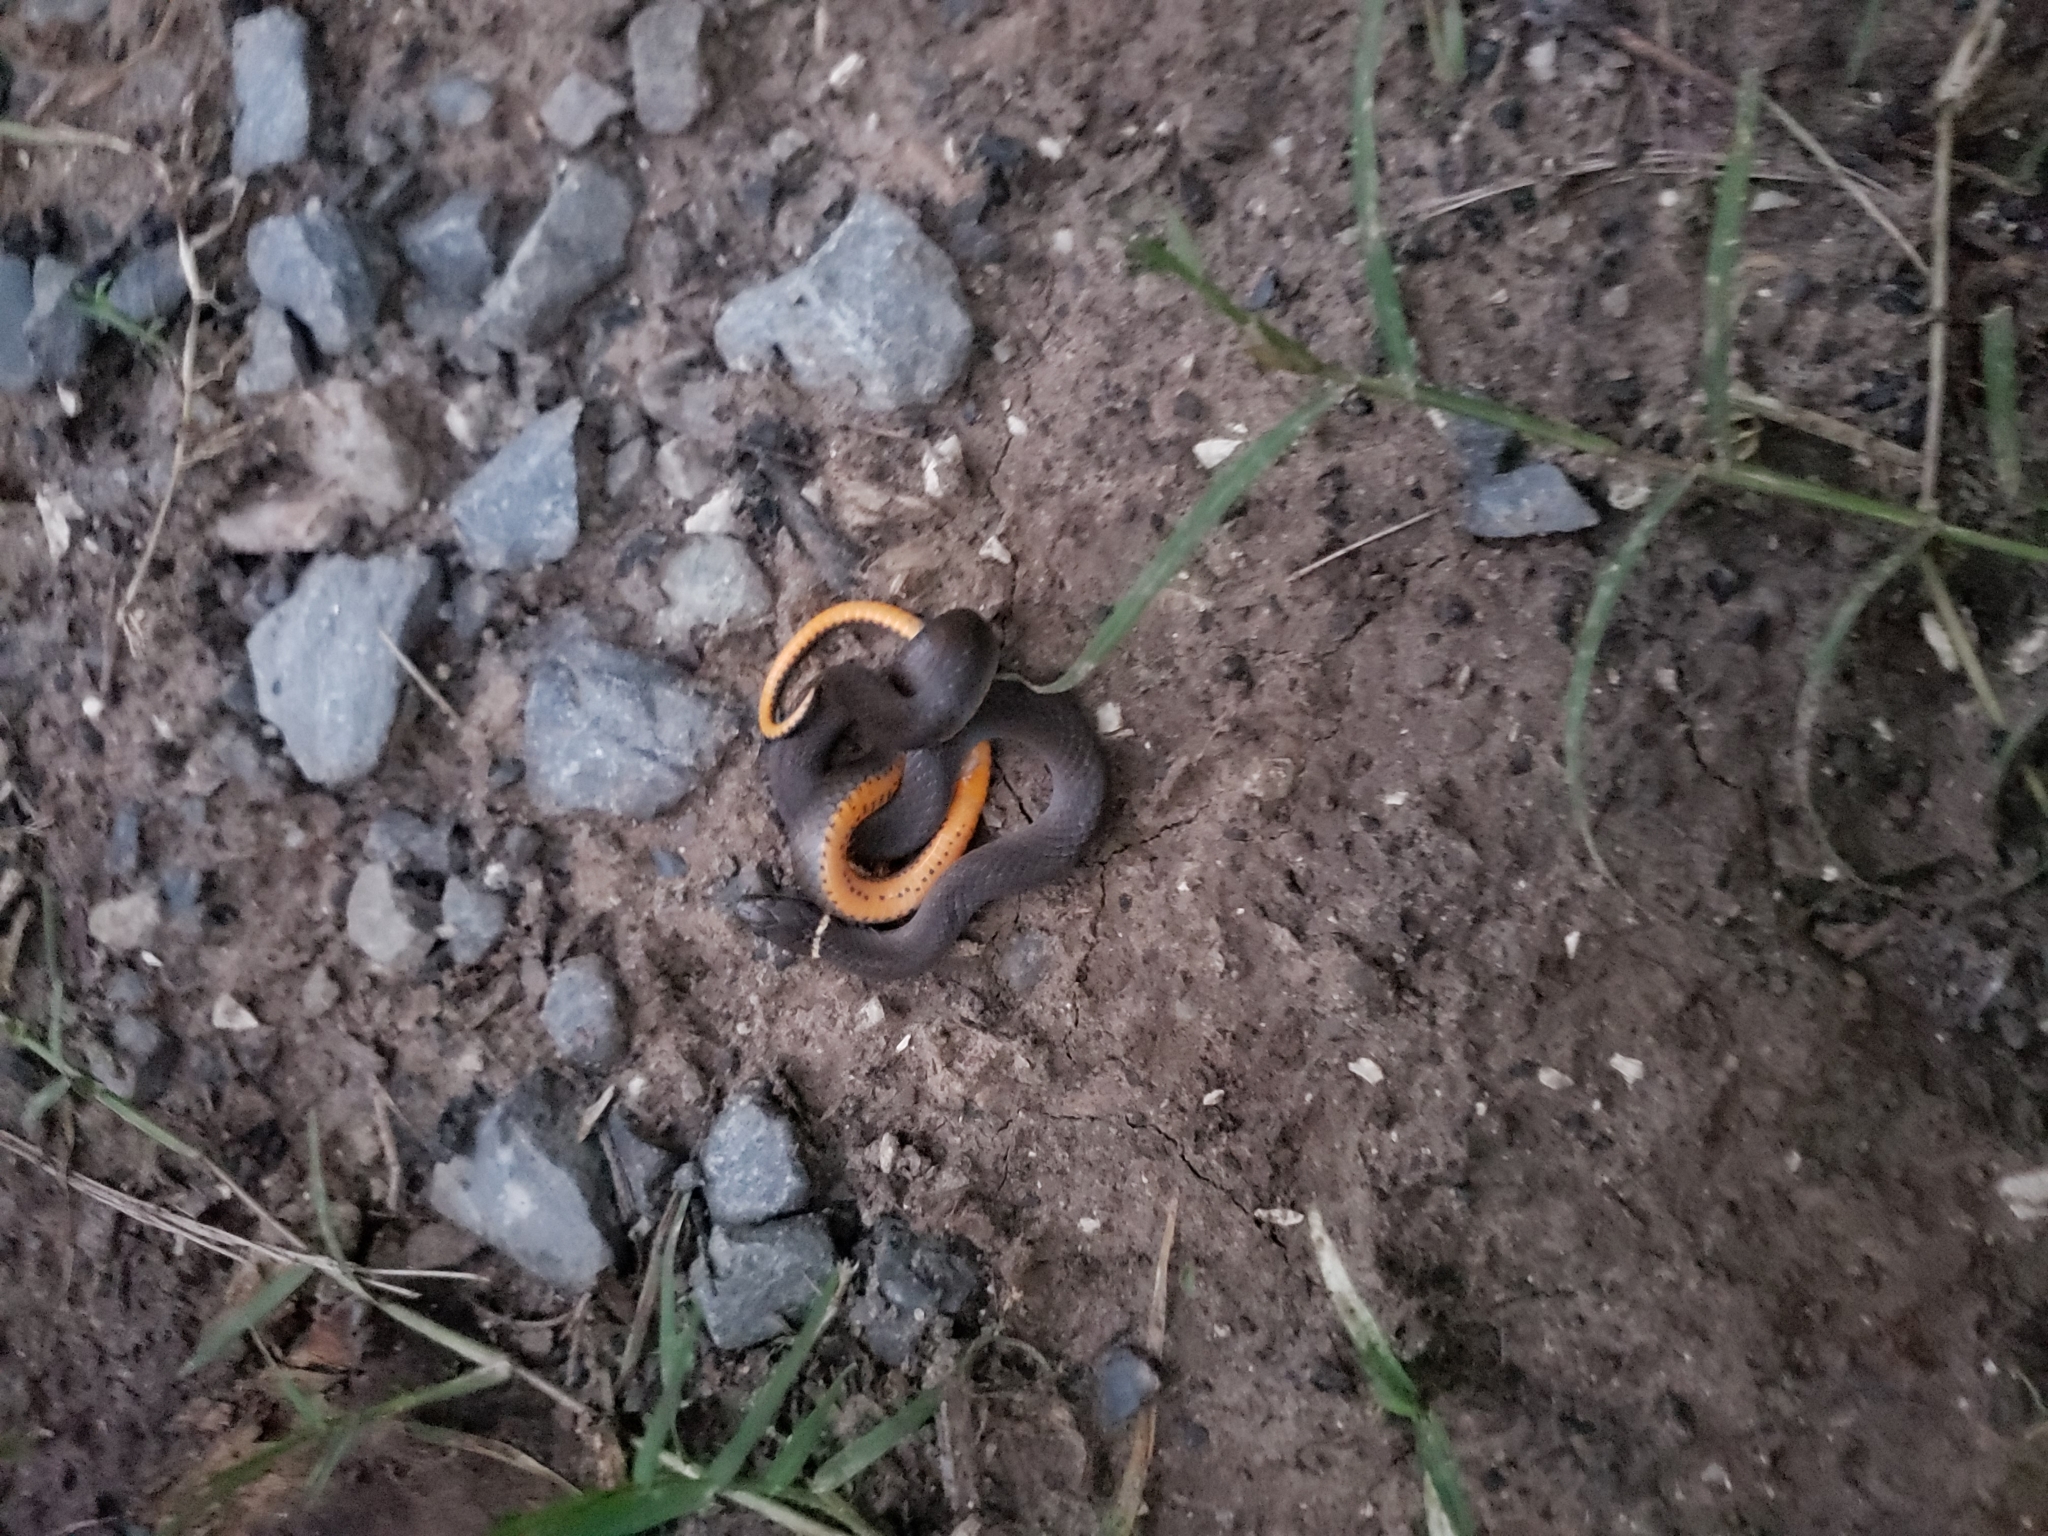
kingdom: Animalia
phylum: Chordata
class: Squamata
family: Colubridae
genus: Diadophis
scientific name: Diadophis punctatus
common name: Ringneck snake
